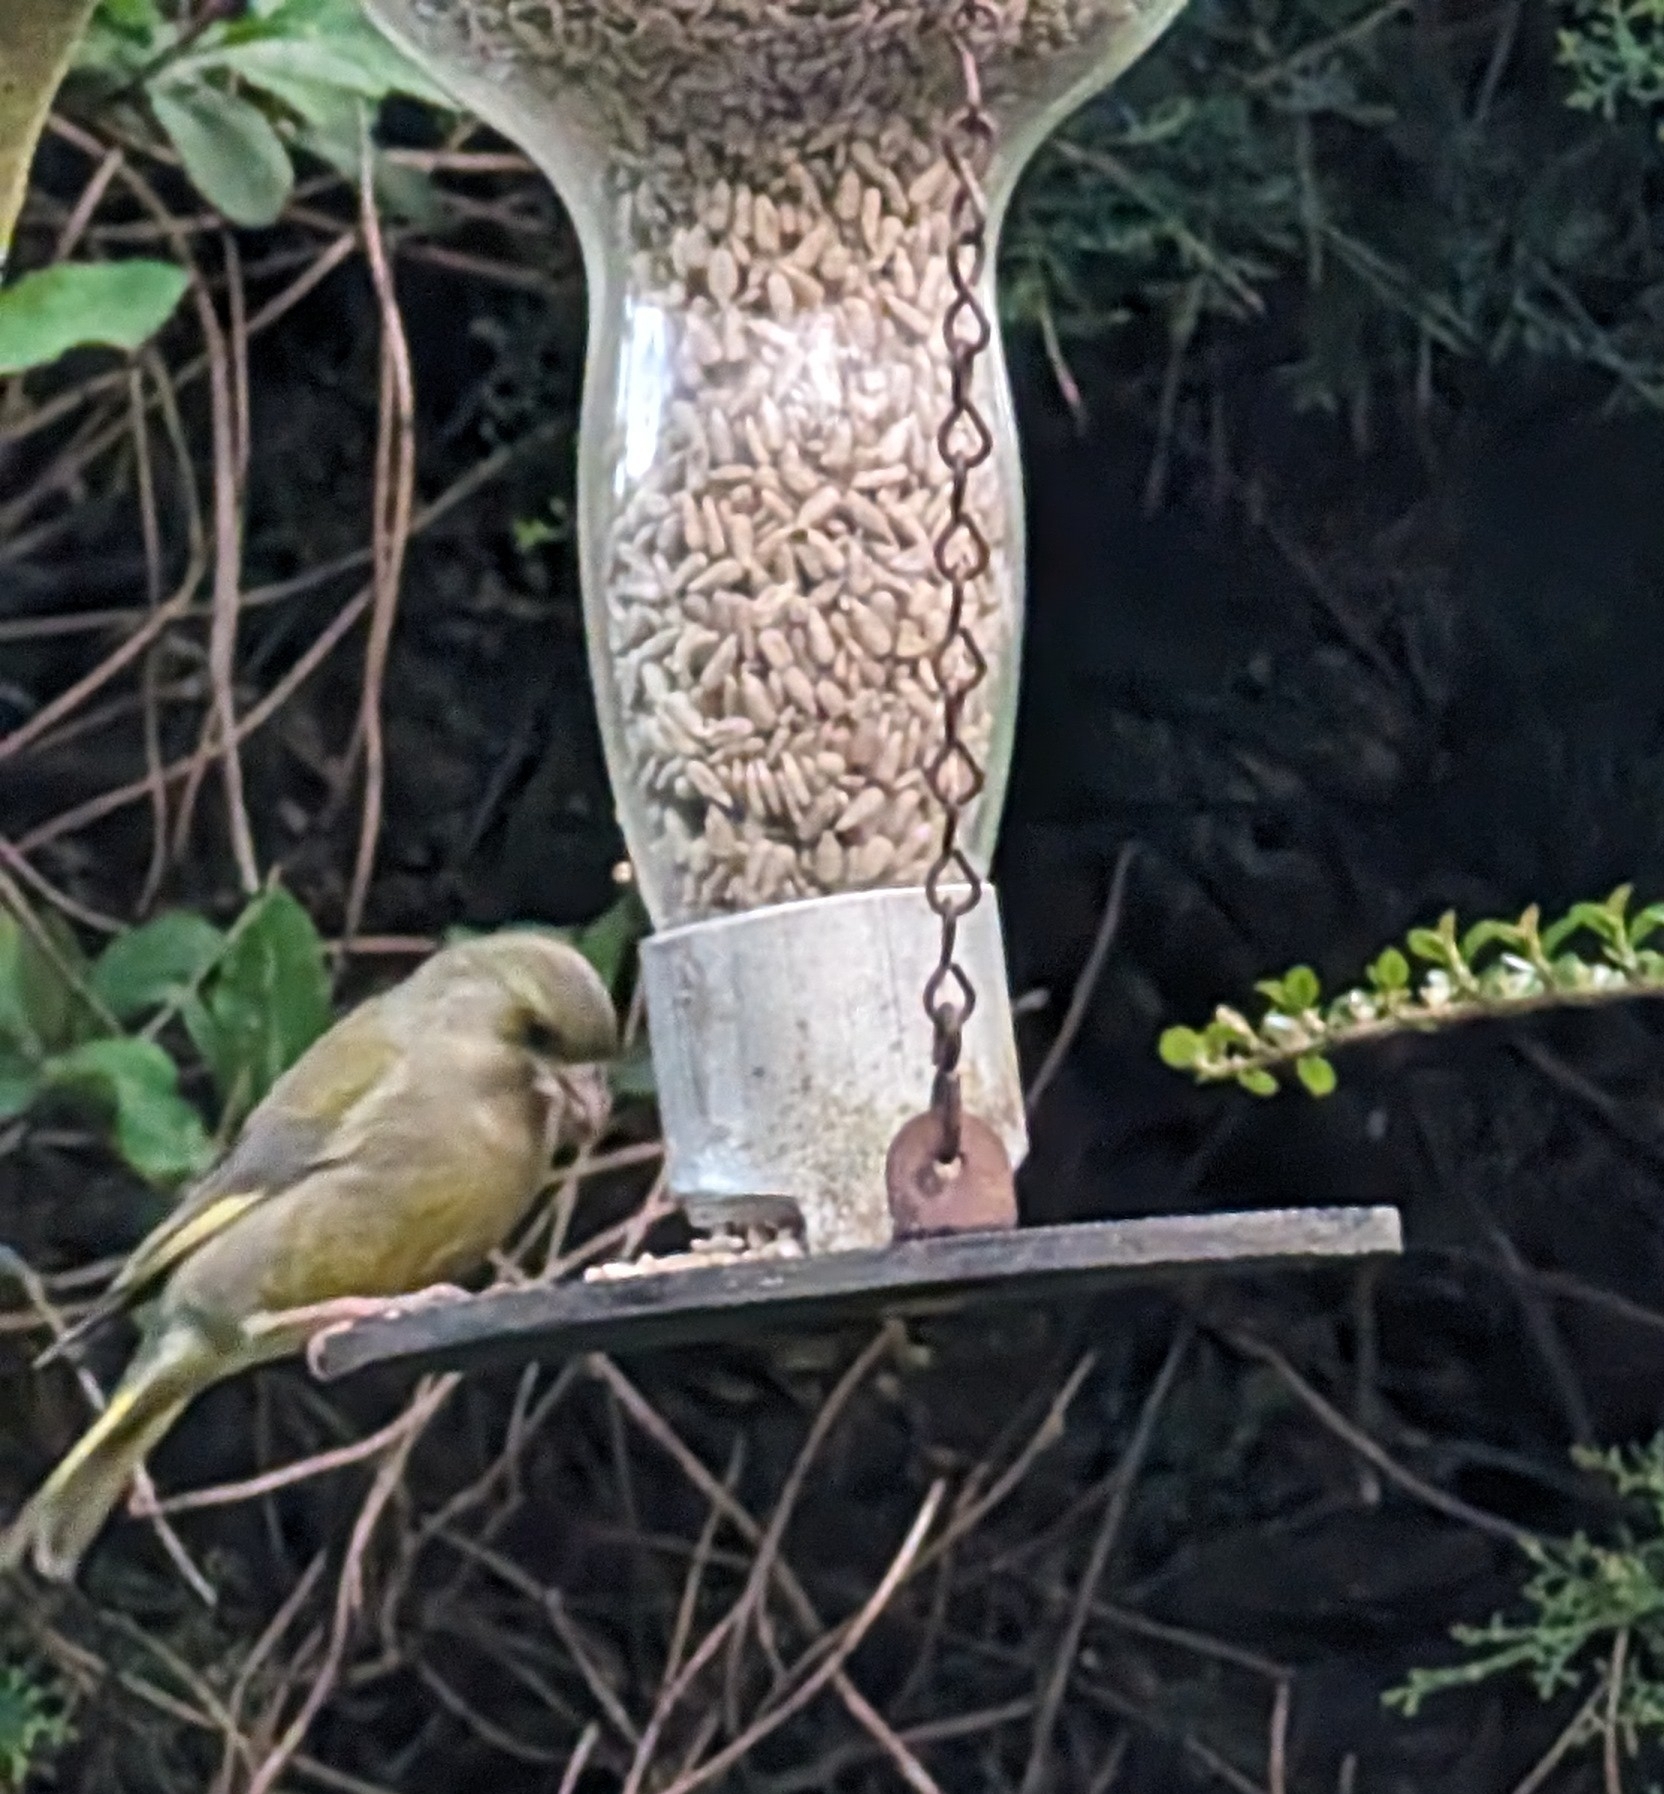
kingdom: Plantae
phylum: Tracheophyta
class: Liliopsida
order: Poales
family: Poaceae
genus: Chloris
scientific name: Chloris chloris
